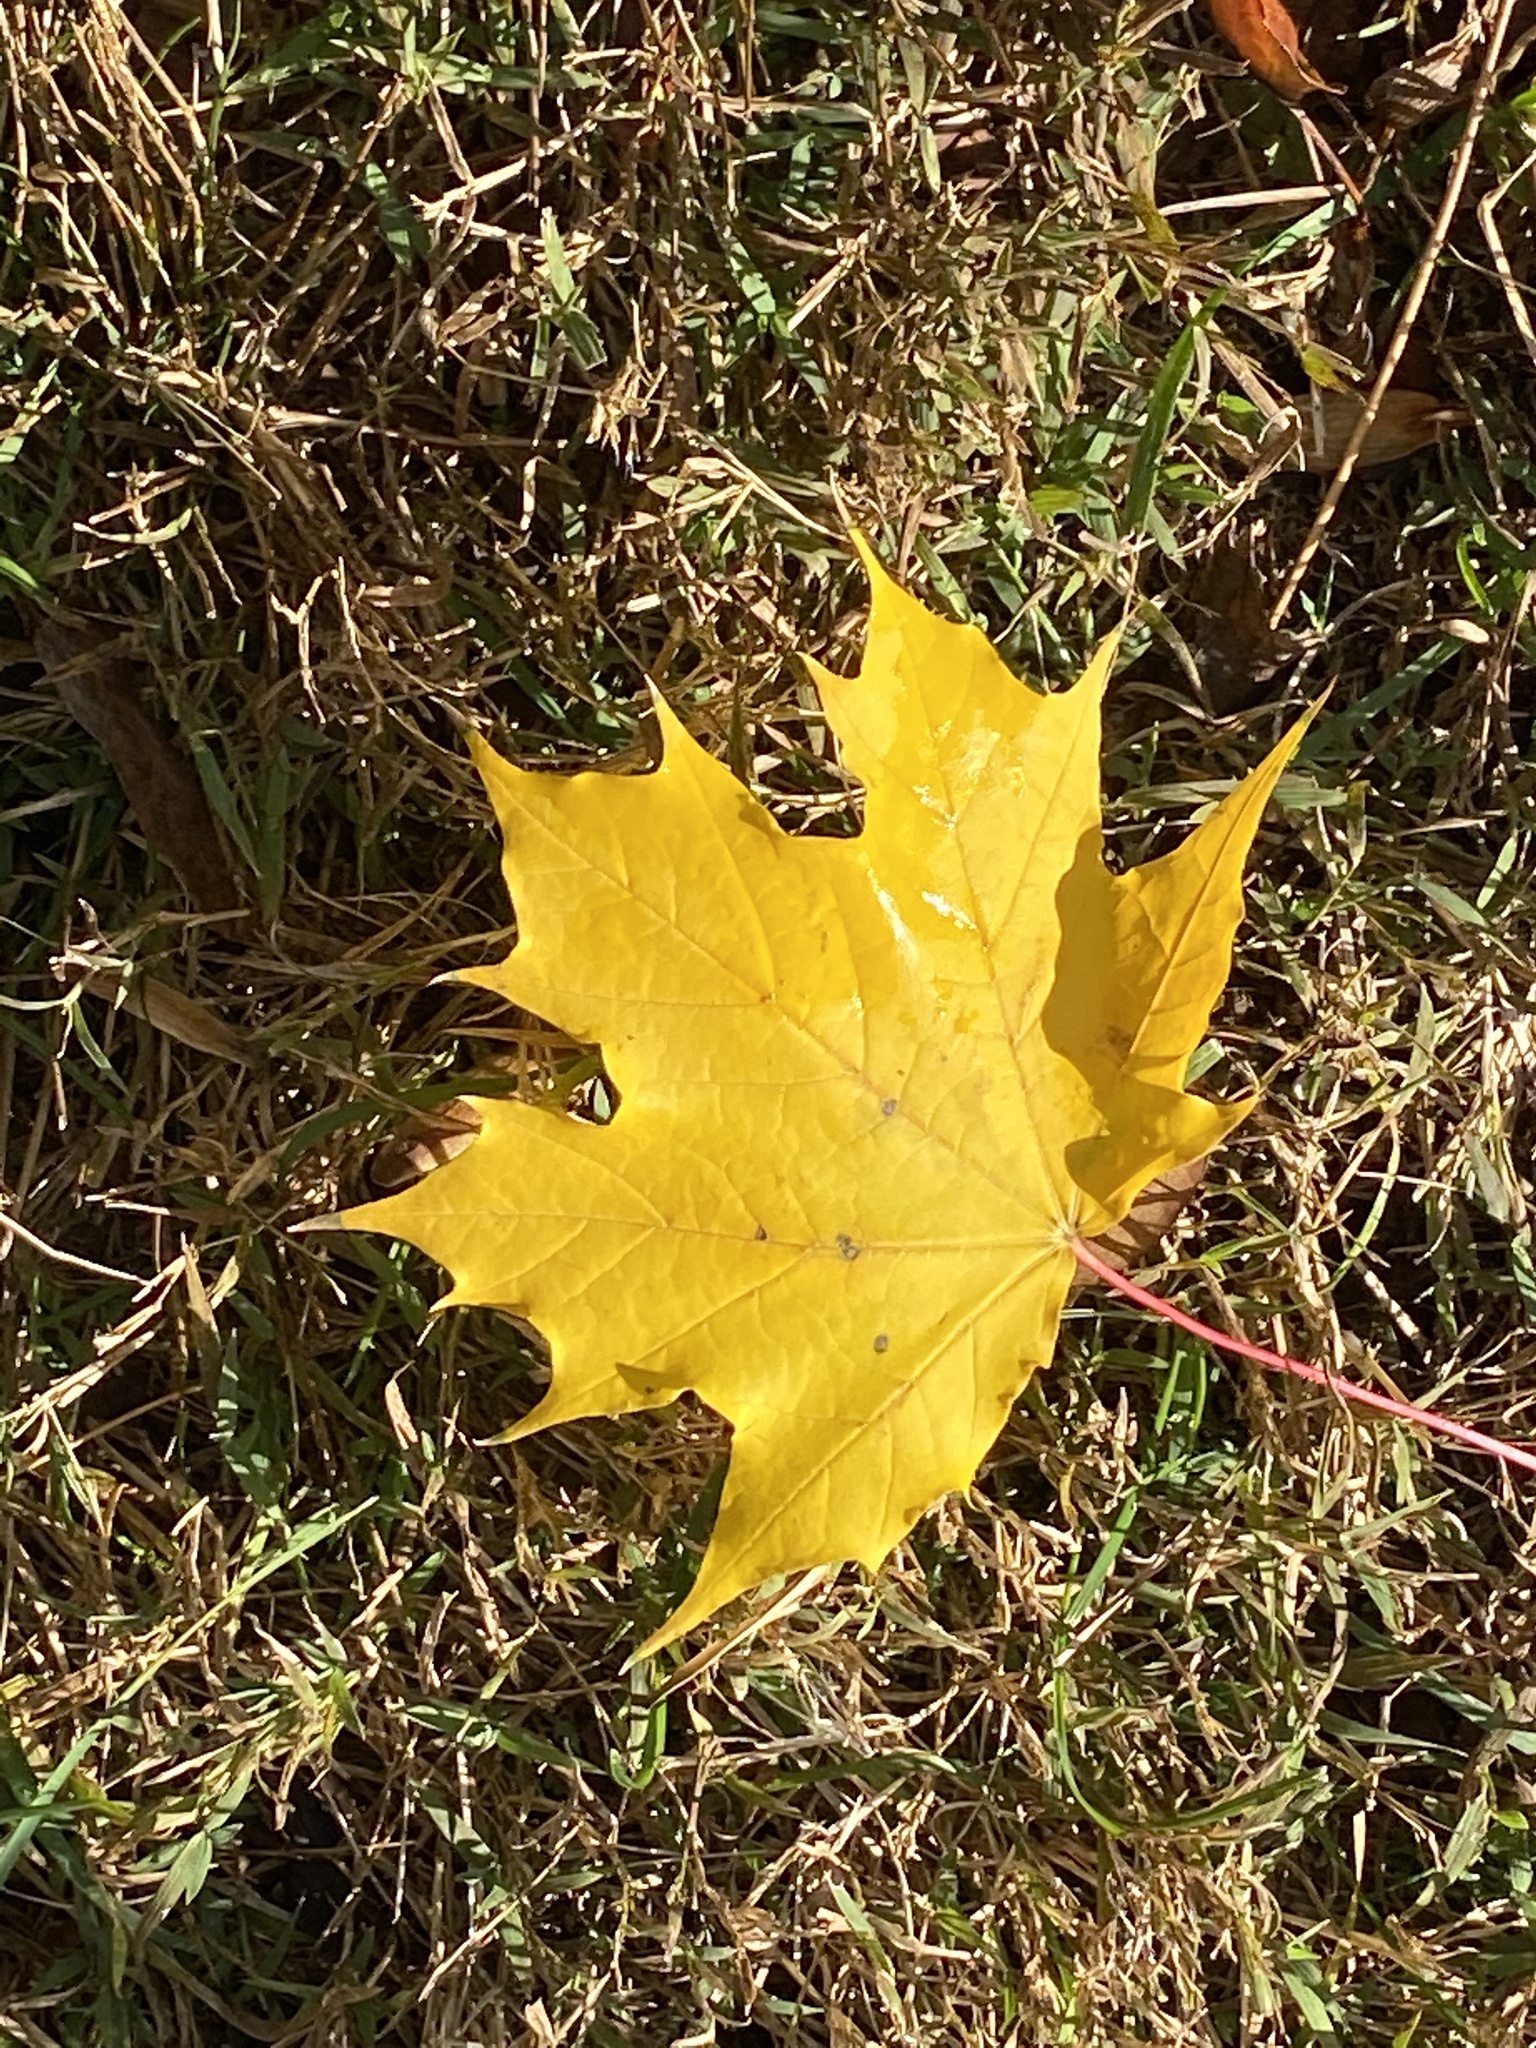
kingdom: Plantae
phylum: Tracheophyta
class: Magnoliopsida
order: Sapindales
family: Sapindaceae
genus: Acer
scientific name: Acer platanoides
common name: Norway maple
